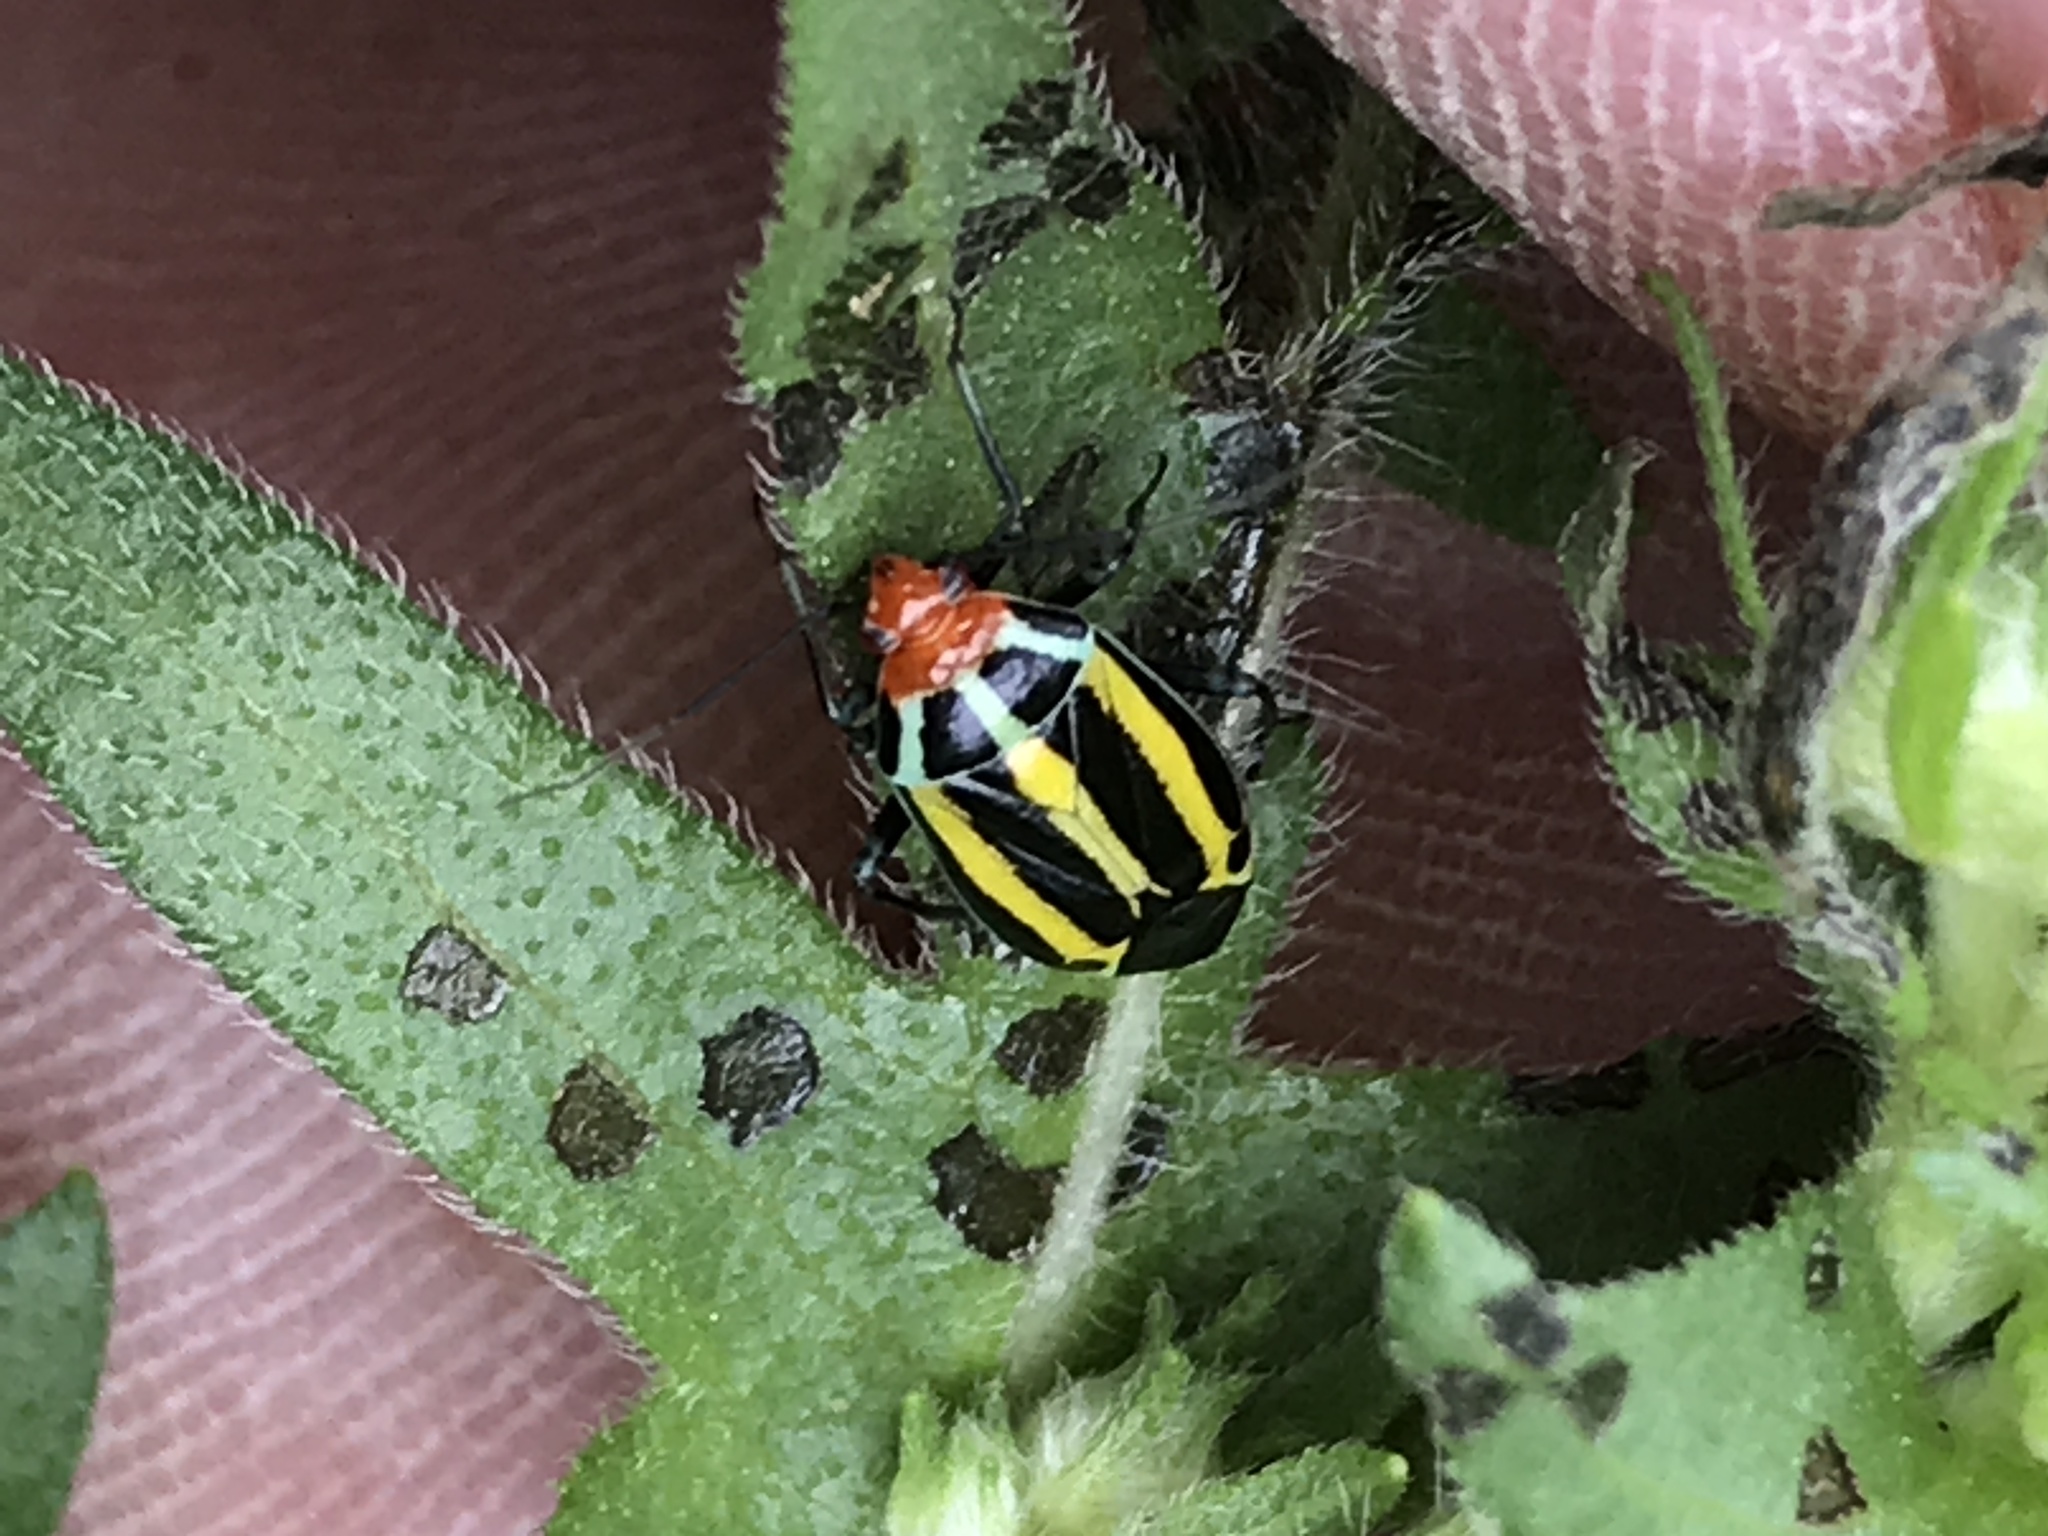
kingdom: Animalia
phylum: Arthropoda
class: Insecta
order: Hemiptera
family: Miridae
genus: Poecilocapsus
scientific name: Poecilocapsus lineatus
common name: Four-lined plant bug
